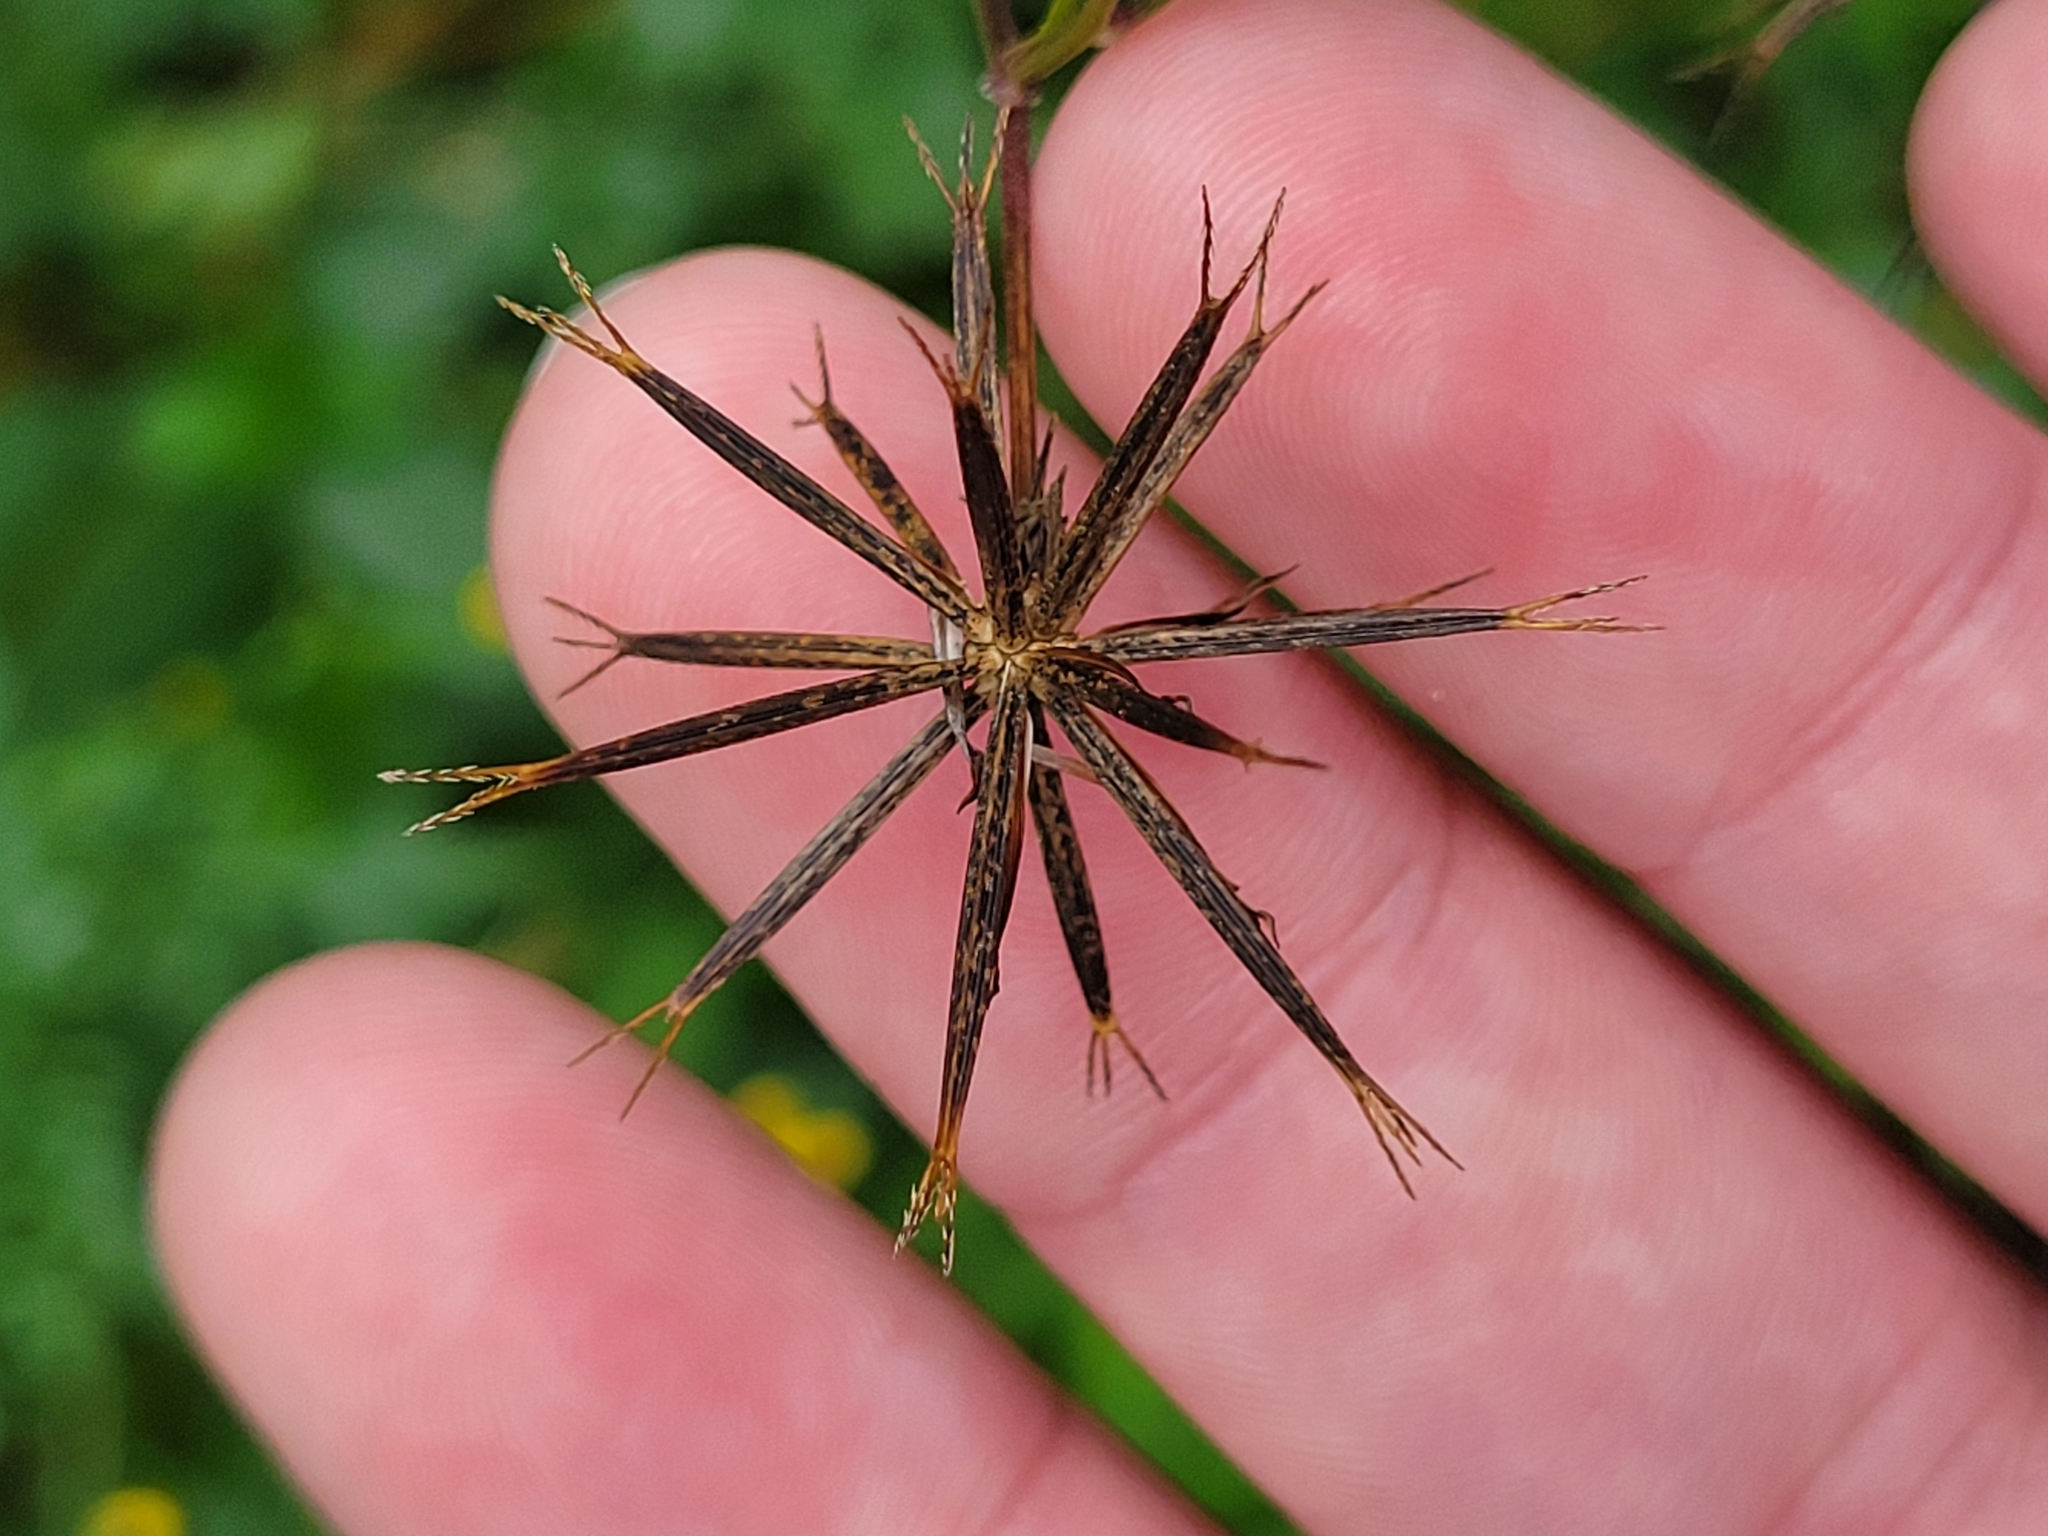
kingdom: Plantae
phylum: Tracheophyta
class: Magnoliopsida
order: Asterales
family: Asteraceae
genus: Bidens
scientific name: Bidens bipinnata
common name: Spanish-needles
